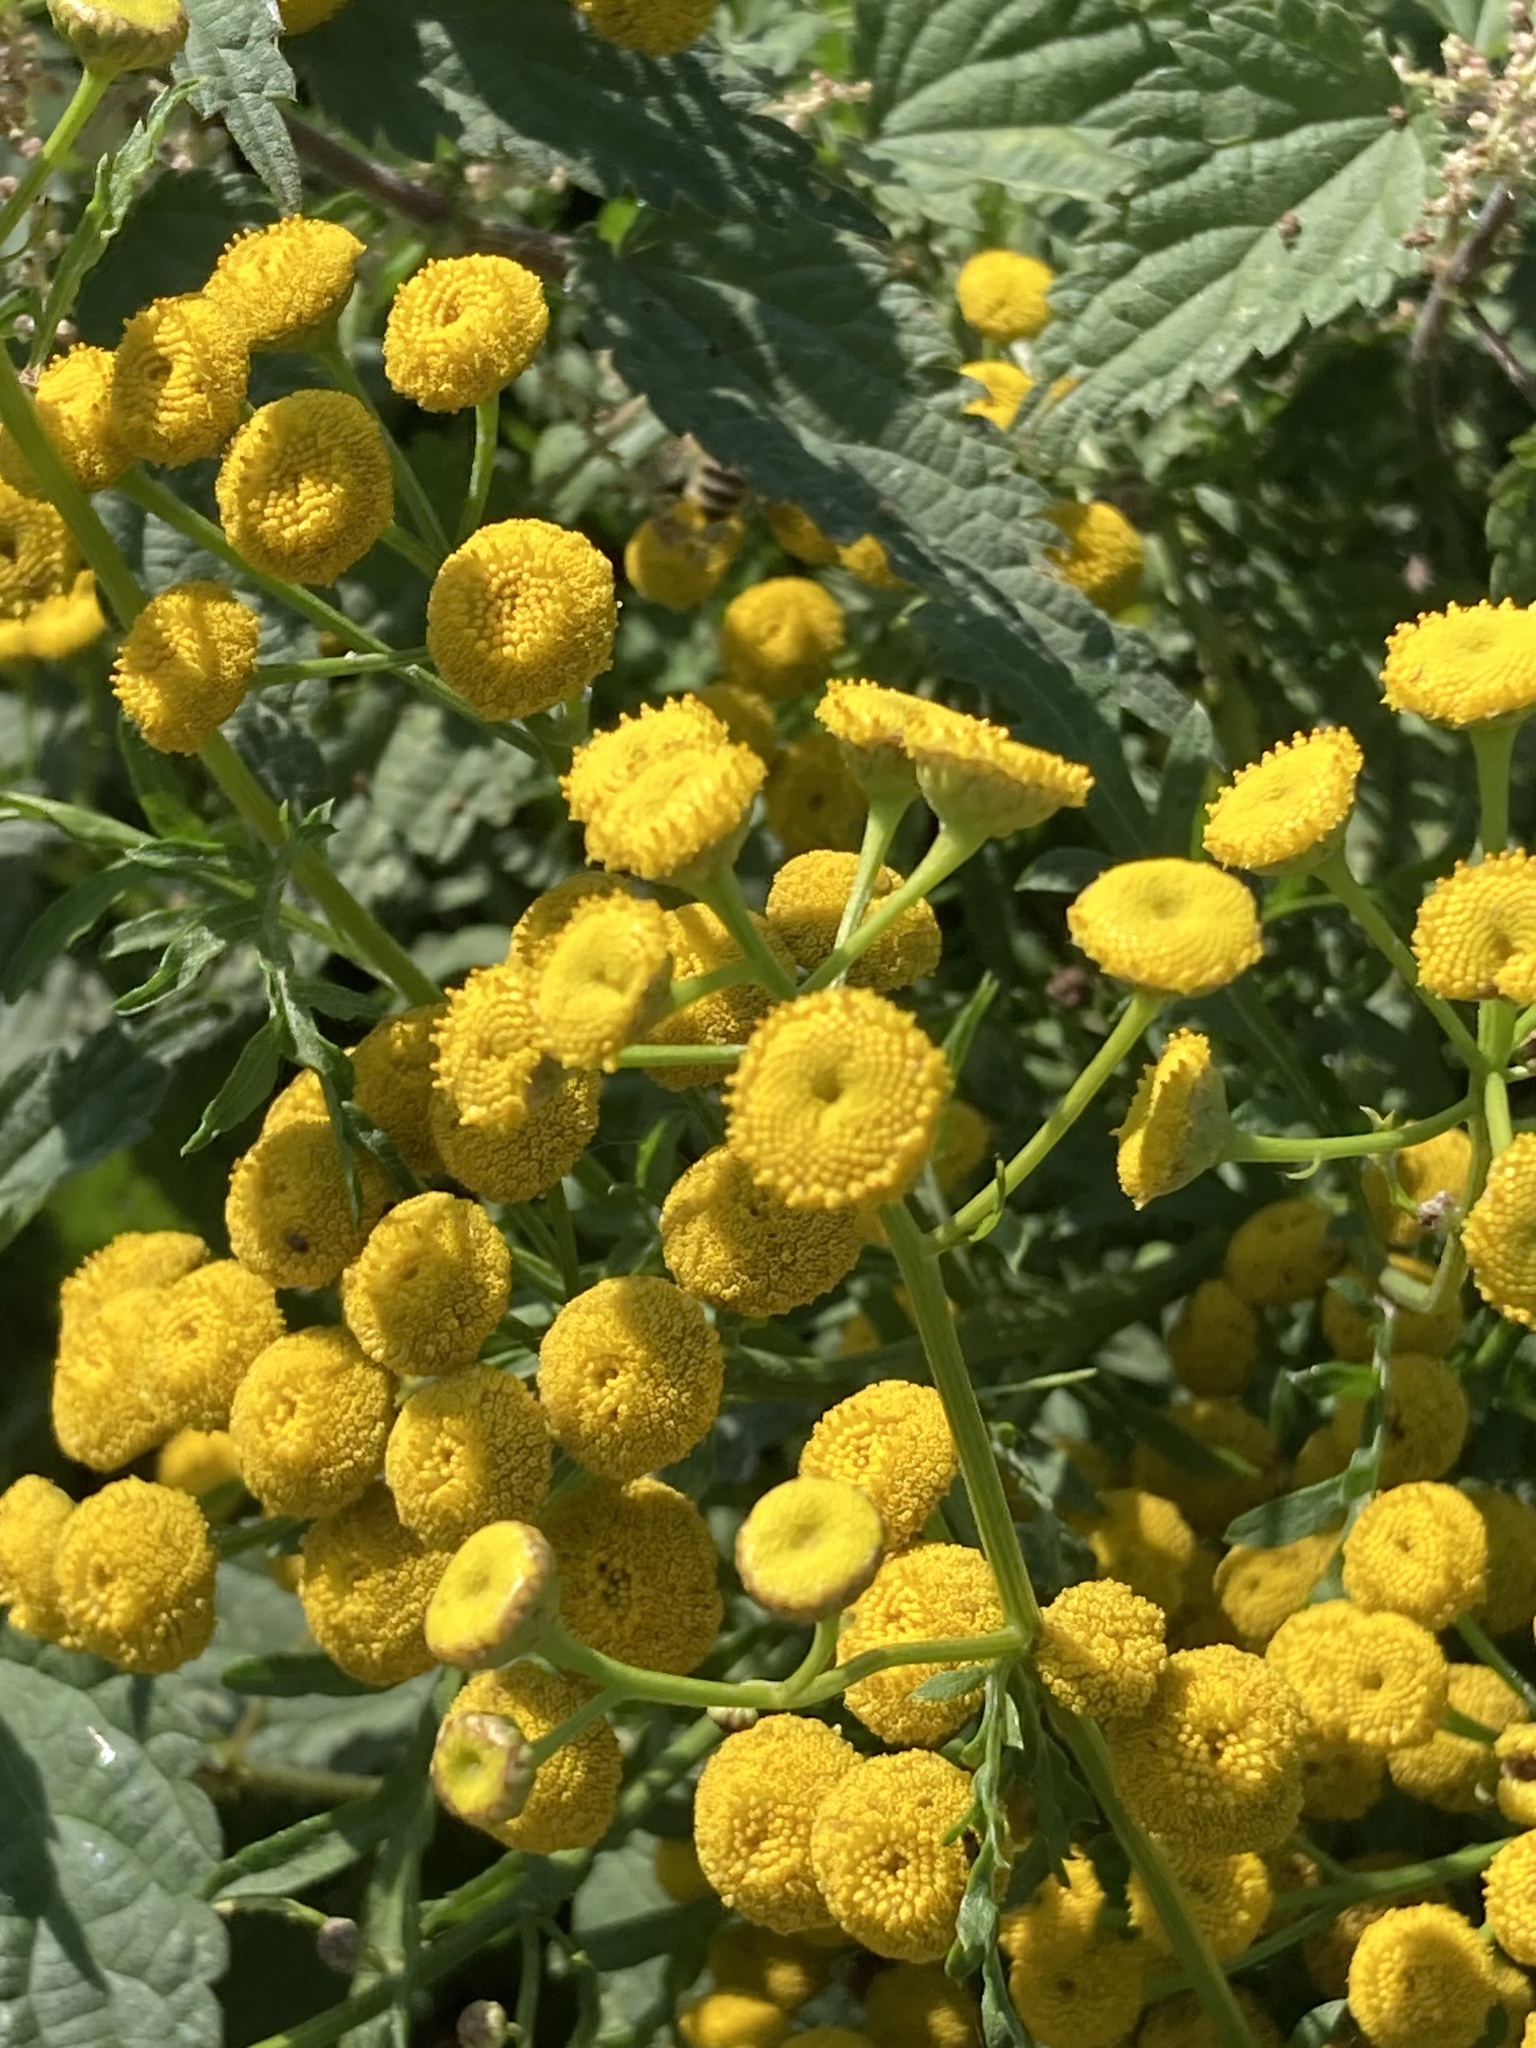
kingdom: Plantae
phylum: Tracheophyta
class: Magnoliopsida
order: Asterales
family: Asteraceae
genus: Tanacetum
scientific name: Tanacetum vulgare
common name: Common tansy
